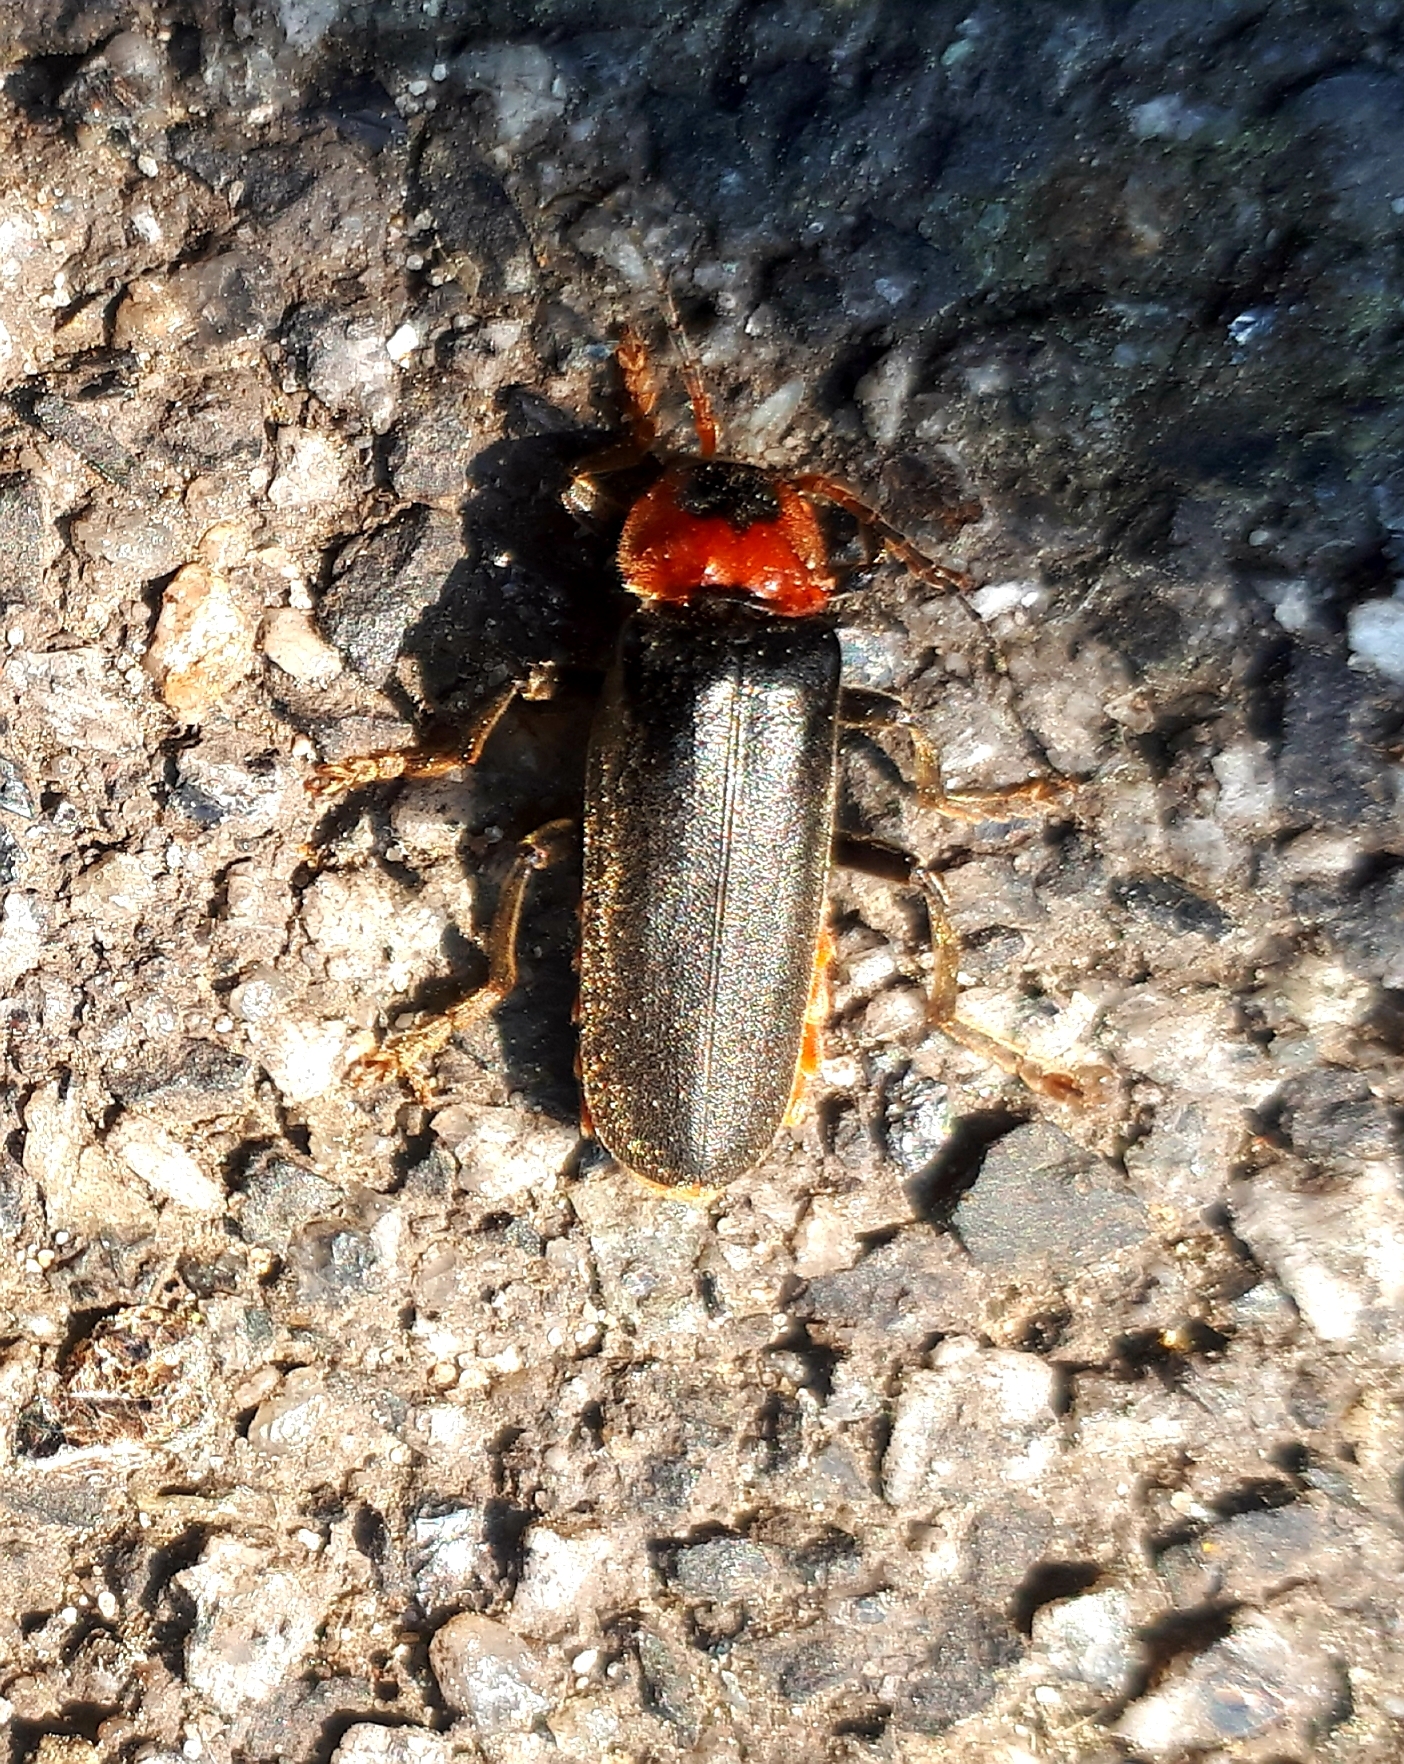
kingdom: Animalia
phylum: Arthropoda
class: Insecta
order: Coleoptera
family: Cantharidae
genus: Cantharis
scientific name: Cantharis fusca
